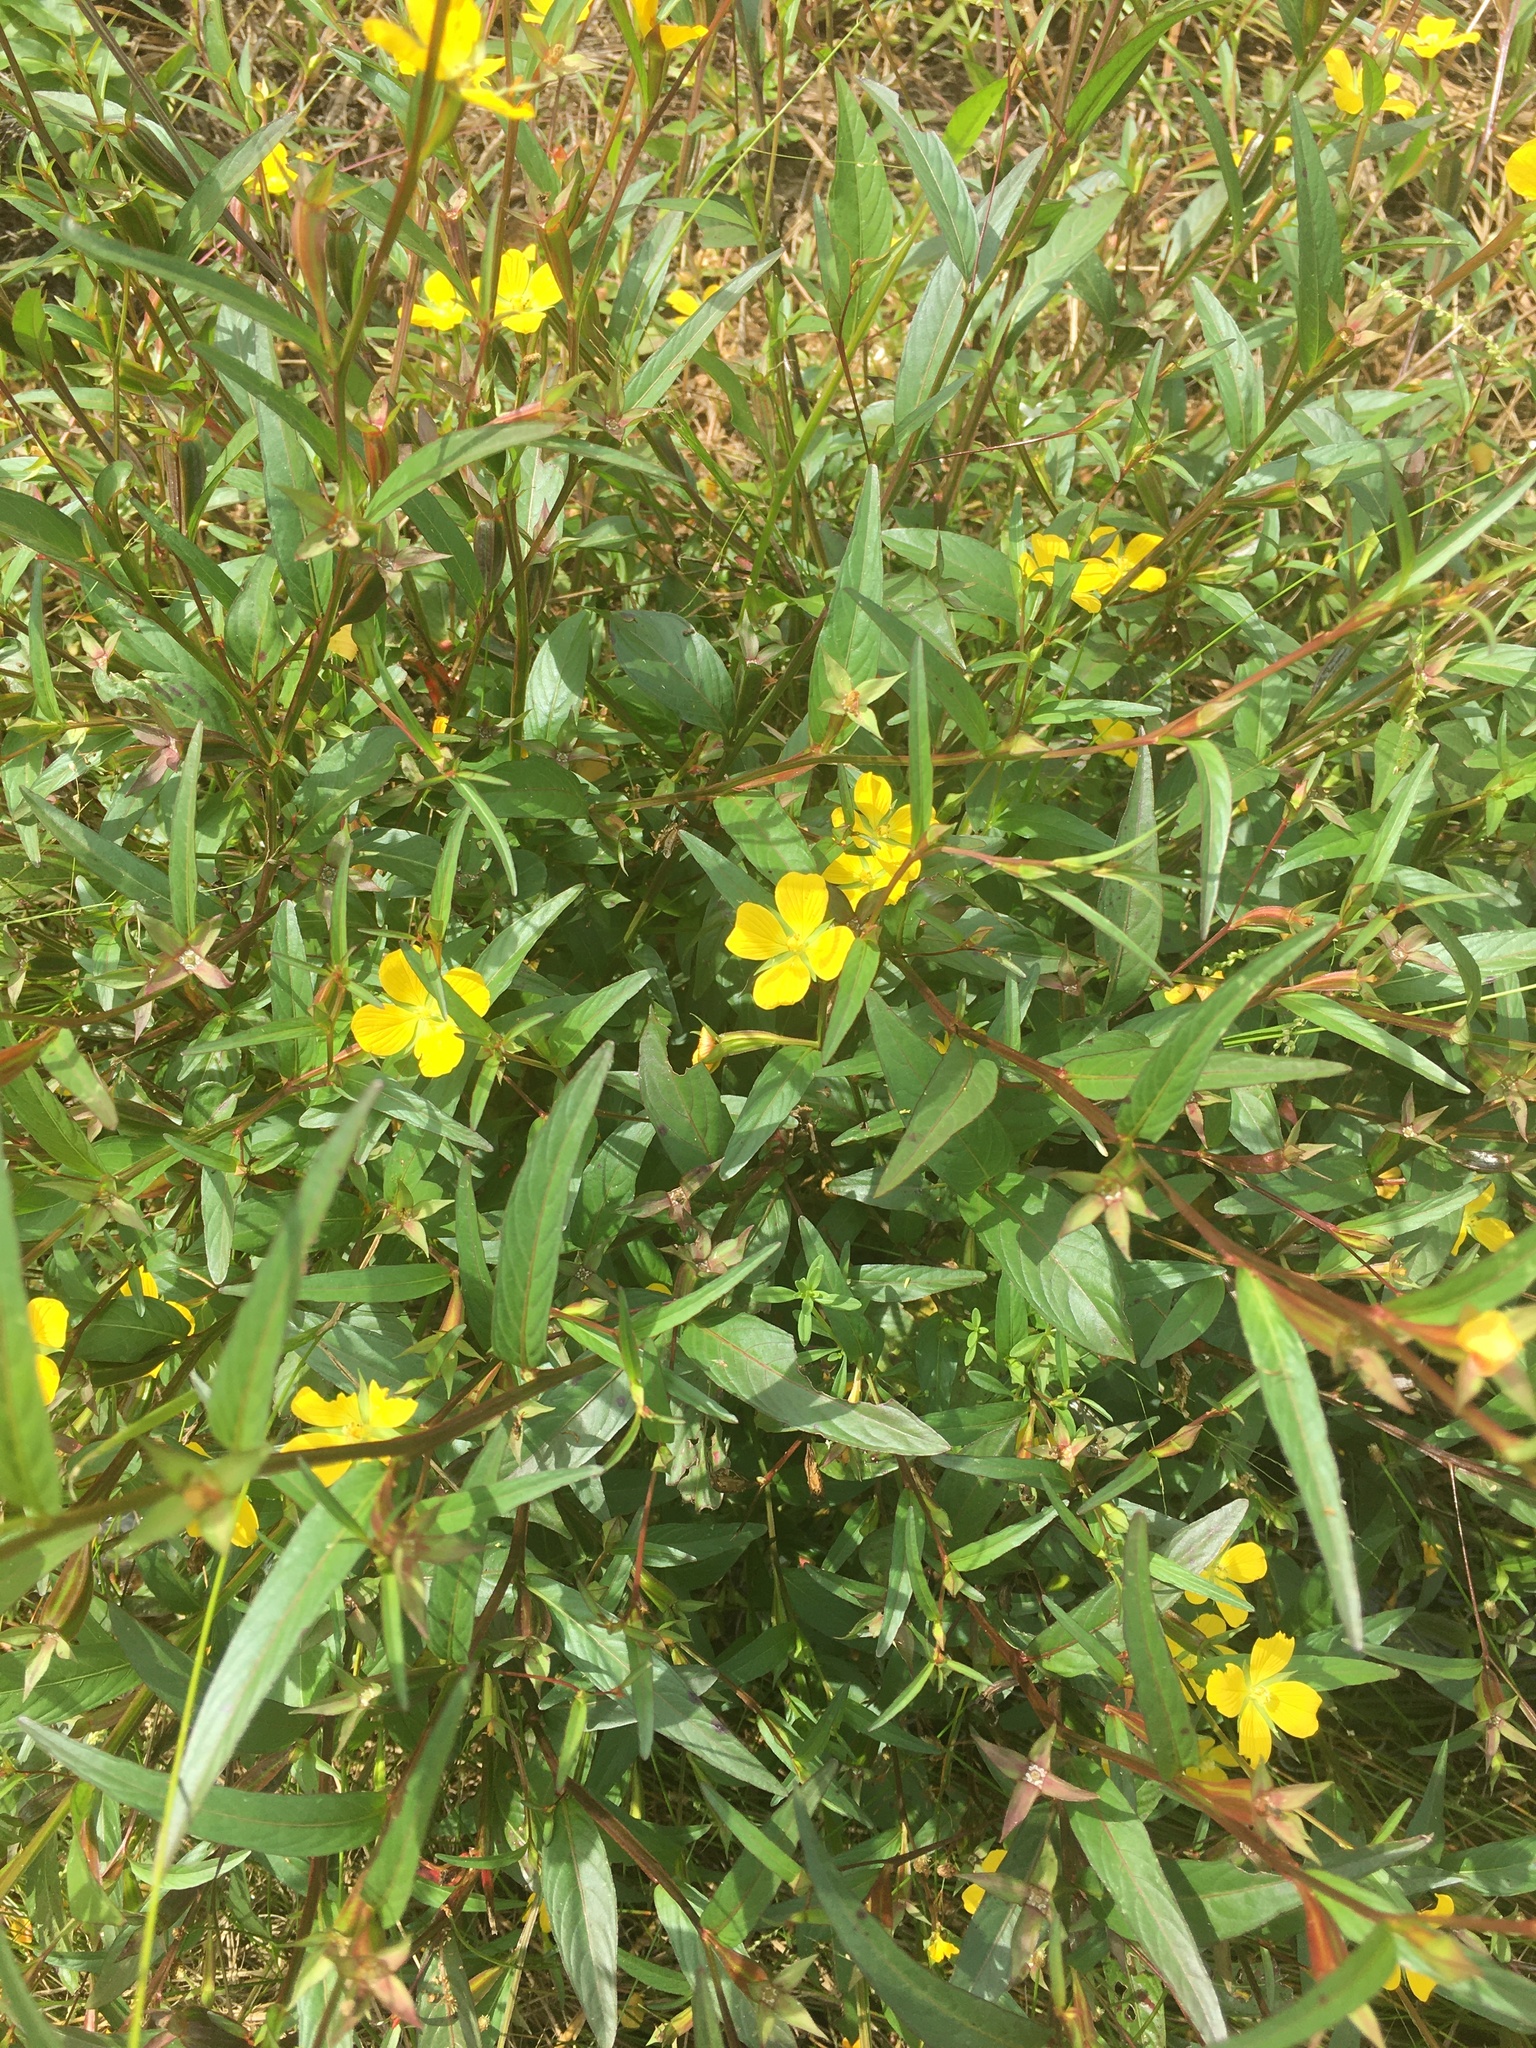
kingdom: Plantae
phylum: Tracheophyta
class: Magnoliopsida
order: Myrtales
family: Onagraceae
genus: Ludwigia
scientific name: Ludwigia decurrens
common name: Winged water-primrose
